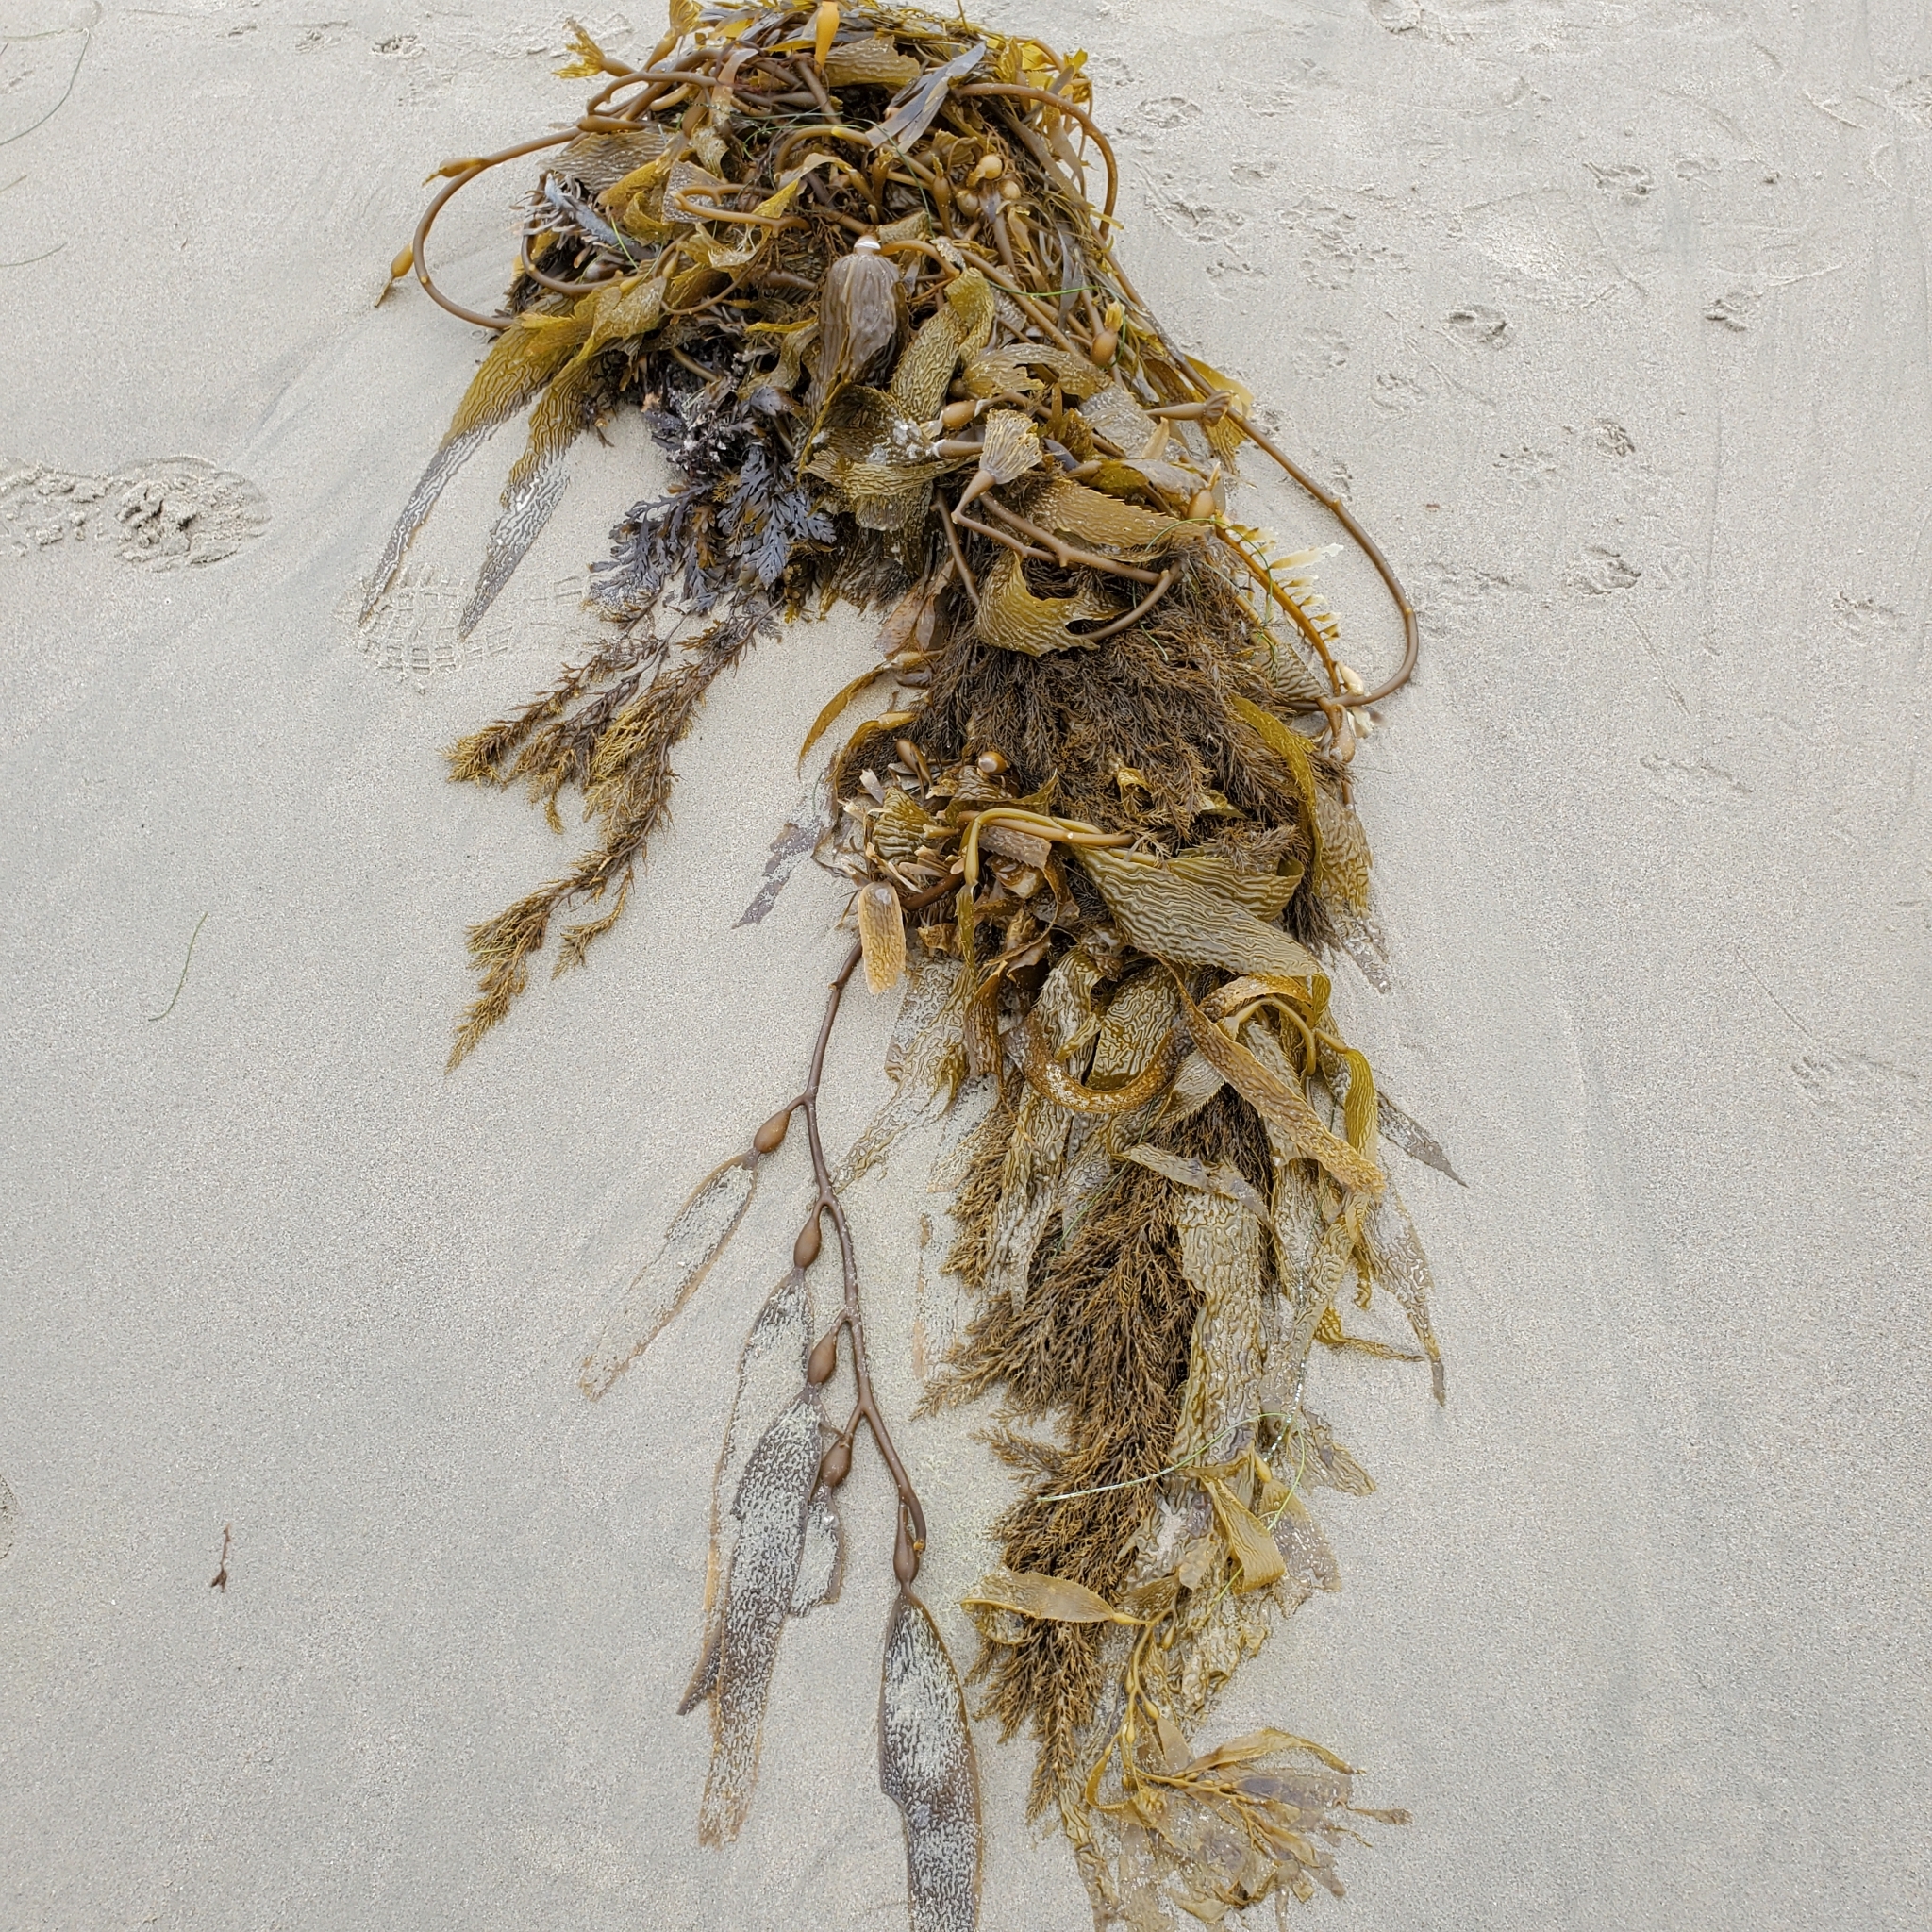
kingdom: Chromista
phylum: Ochrophyta
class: Phaeophyceae
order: Laminariales
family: Laminariaceae
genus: Macrocystis
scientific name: Macrocystis pyrifera
